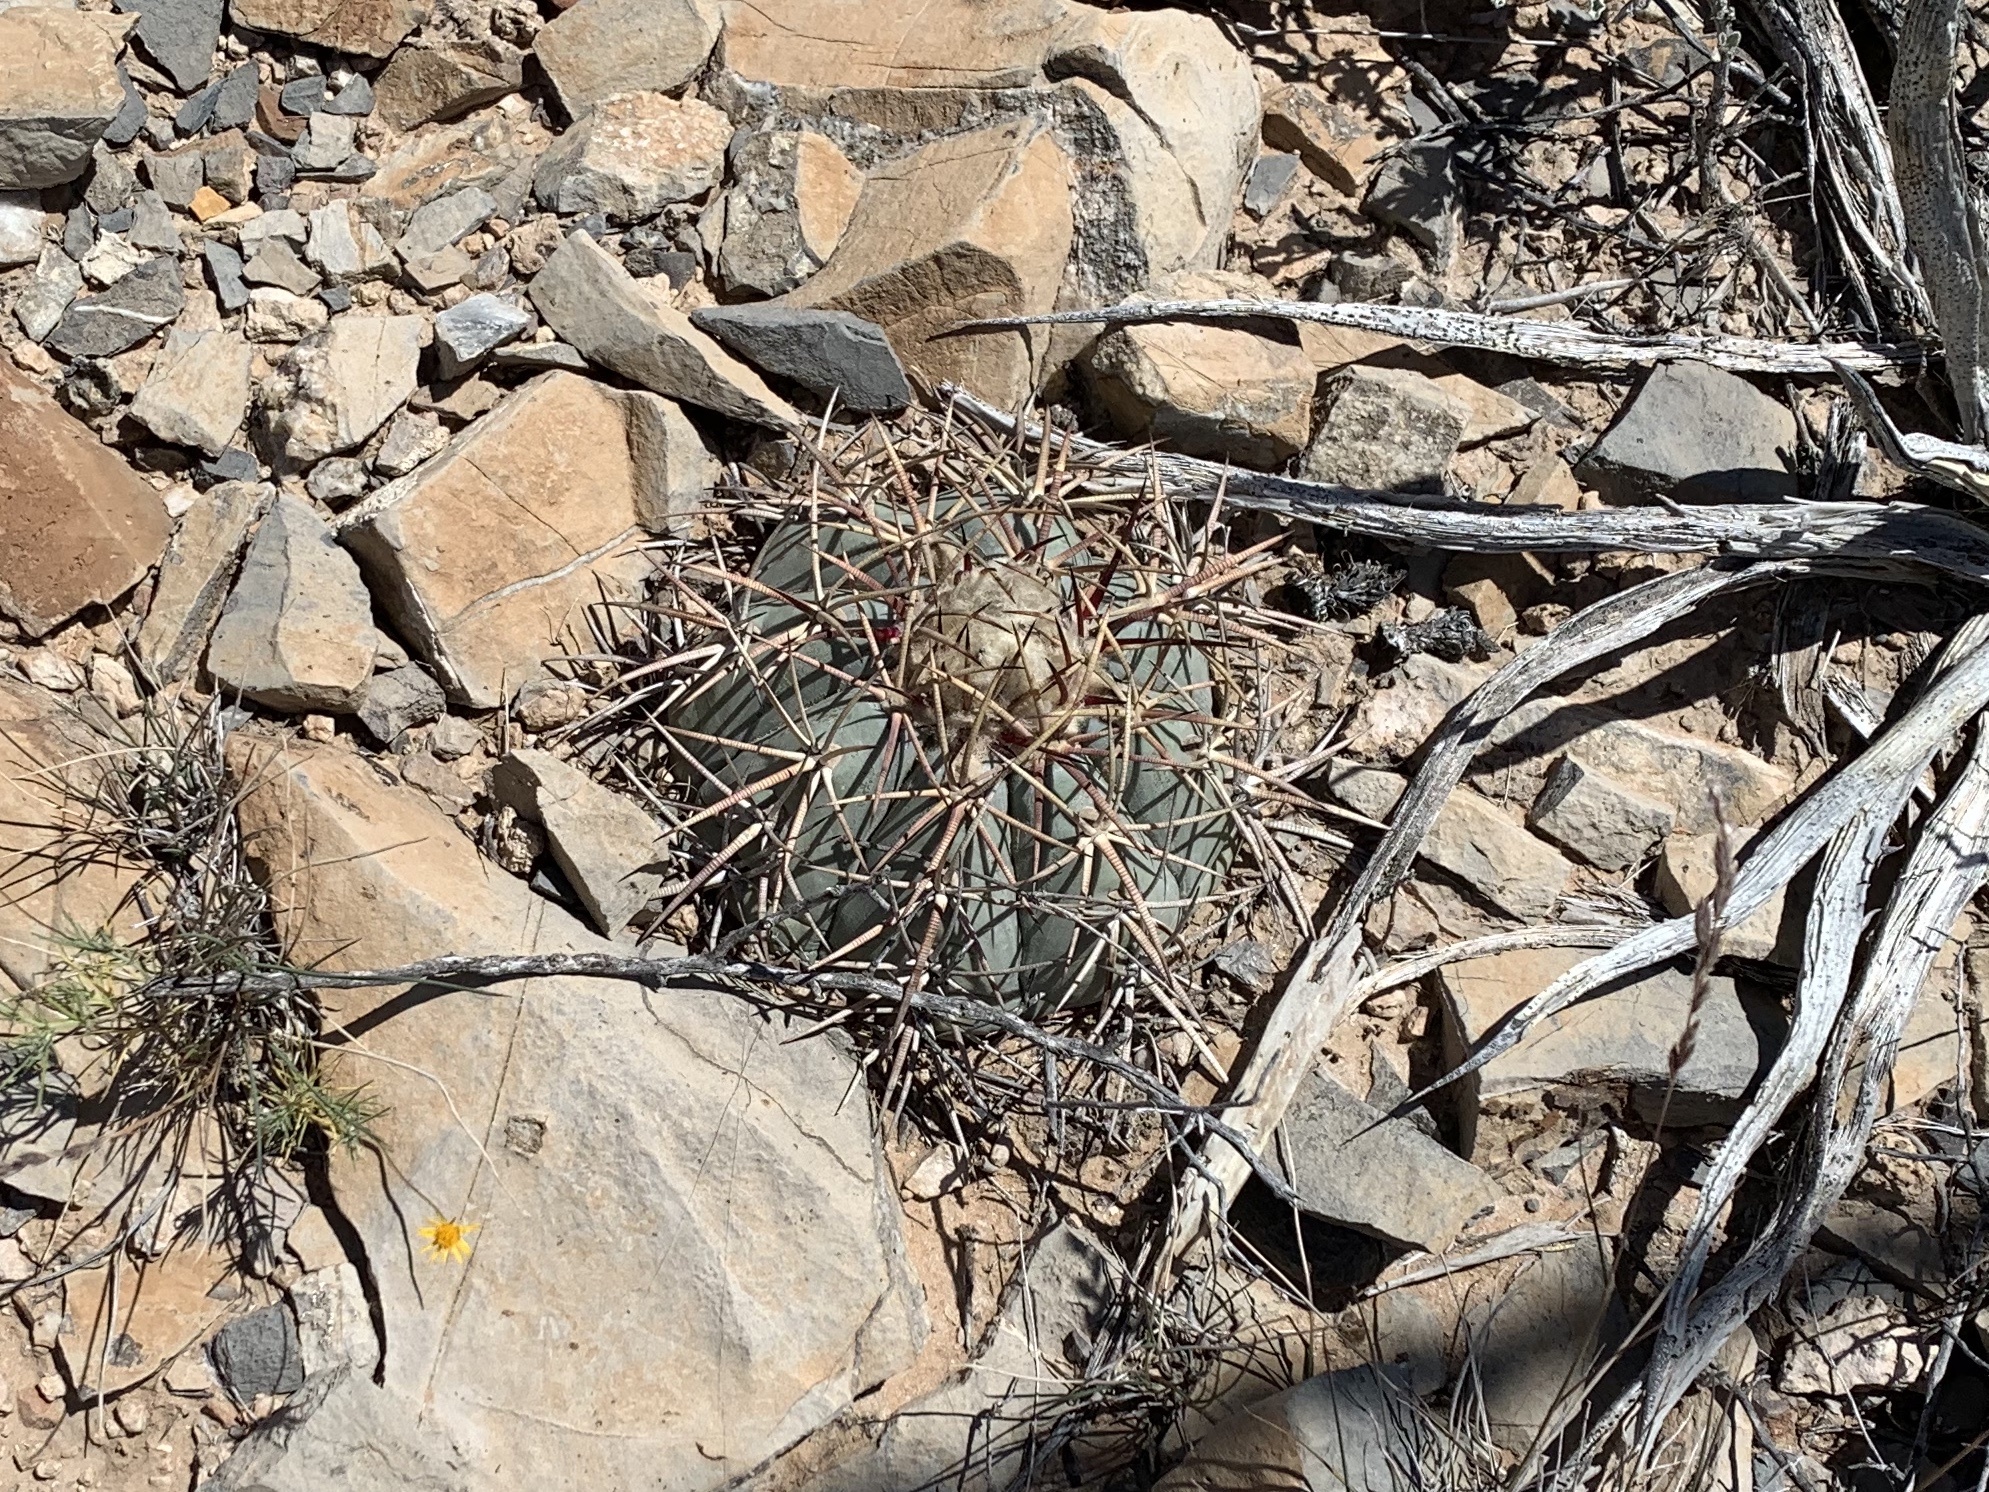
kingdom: Plantae
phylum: Tracheophyta
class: Magnoliopsida
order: Caryophyllales
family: Cactaceae
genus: Echinocactus
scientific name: Echinocactus horizonthalonius
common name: Devilshead
